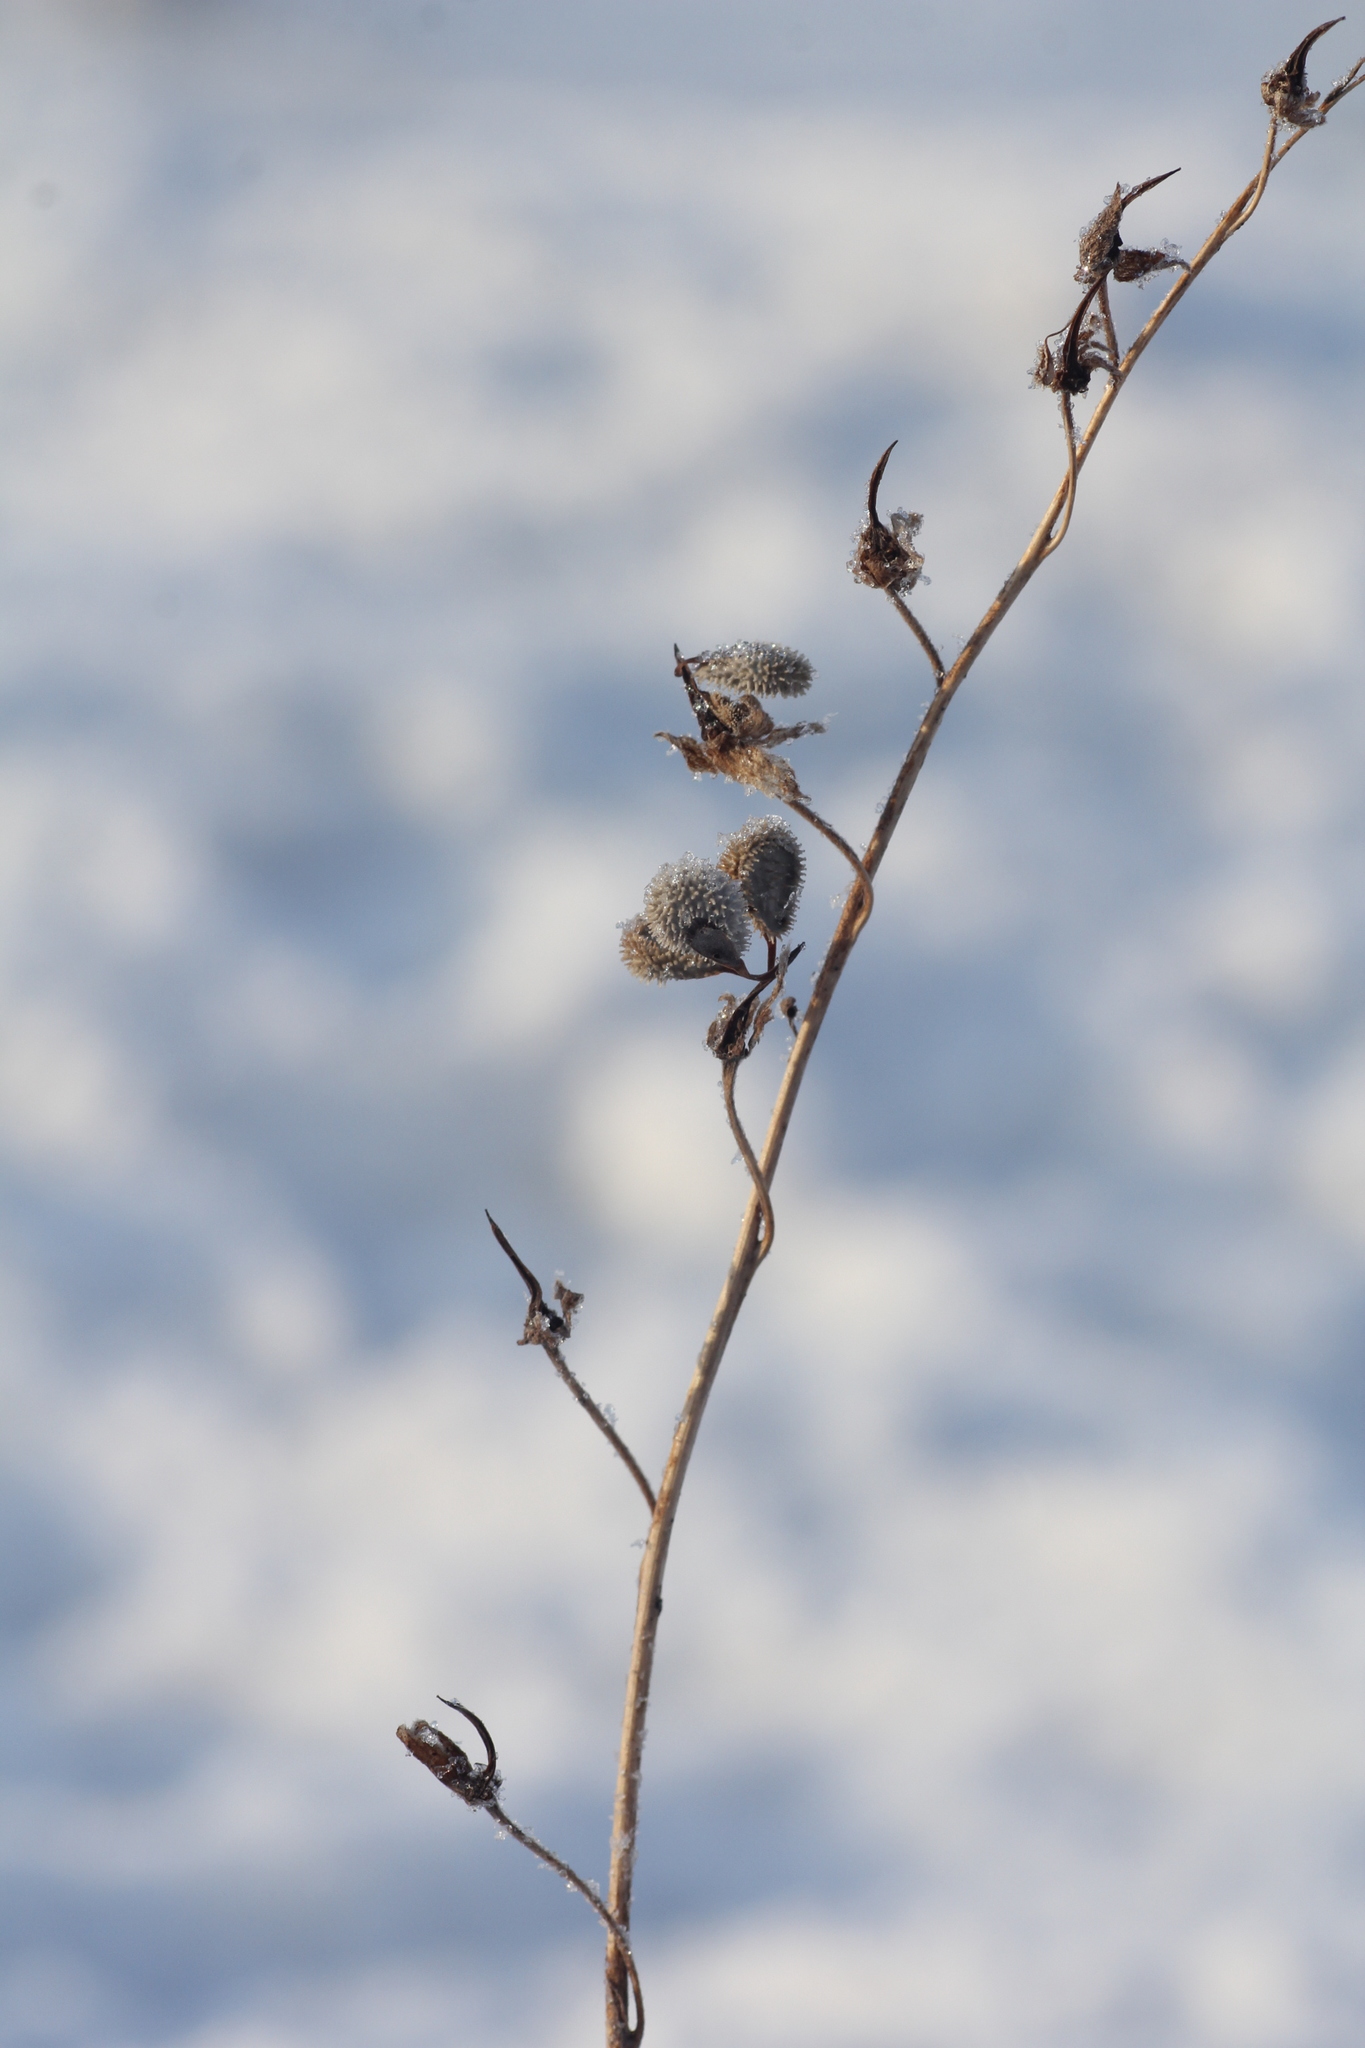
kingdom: Plantae
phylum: Tracheophyta
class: Magnoliopsida
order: Boraginales
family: Boraginaceae
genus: Cynoglossum
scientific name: Cynoglossum officinale
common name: Hound's-tongue
